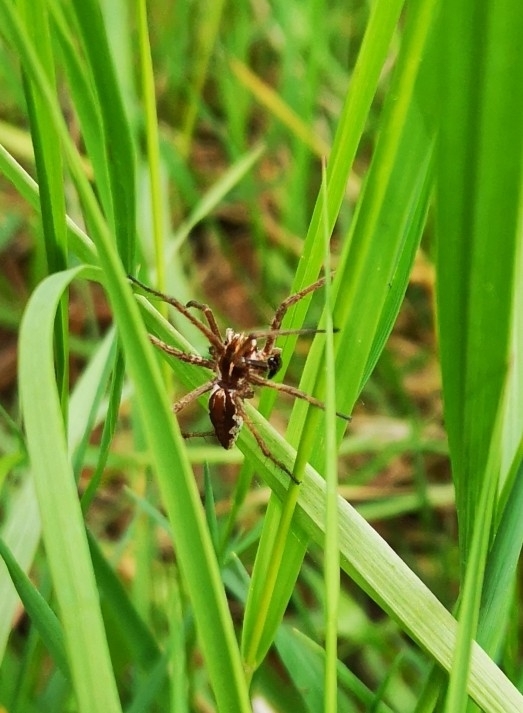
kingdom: Animalia
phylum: Arthropoda
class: Arachnida
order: Araneae
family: Pisauridae
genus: Pisaura
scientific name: Pisaura mirabilis
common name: Tent spider
